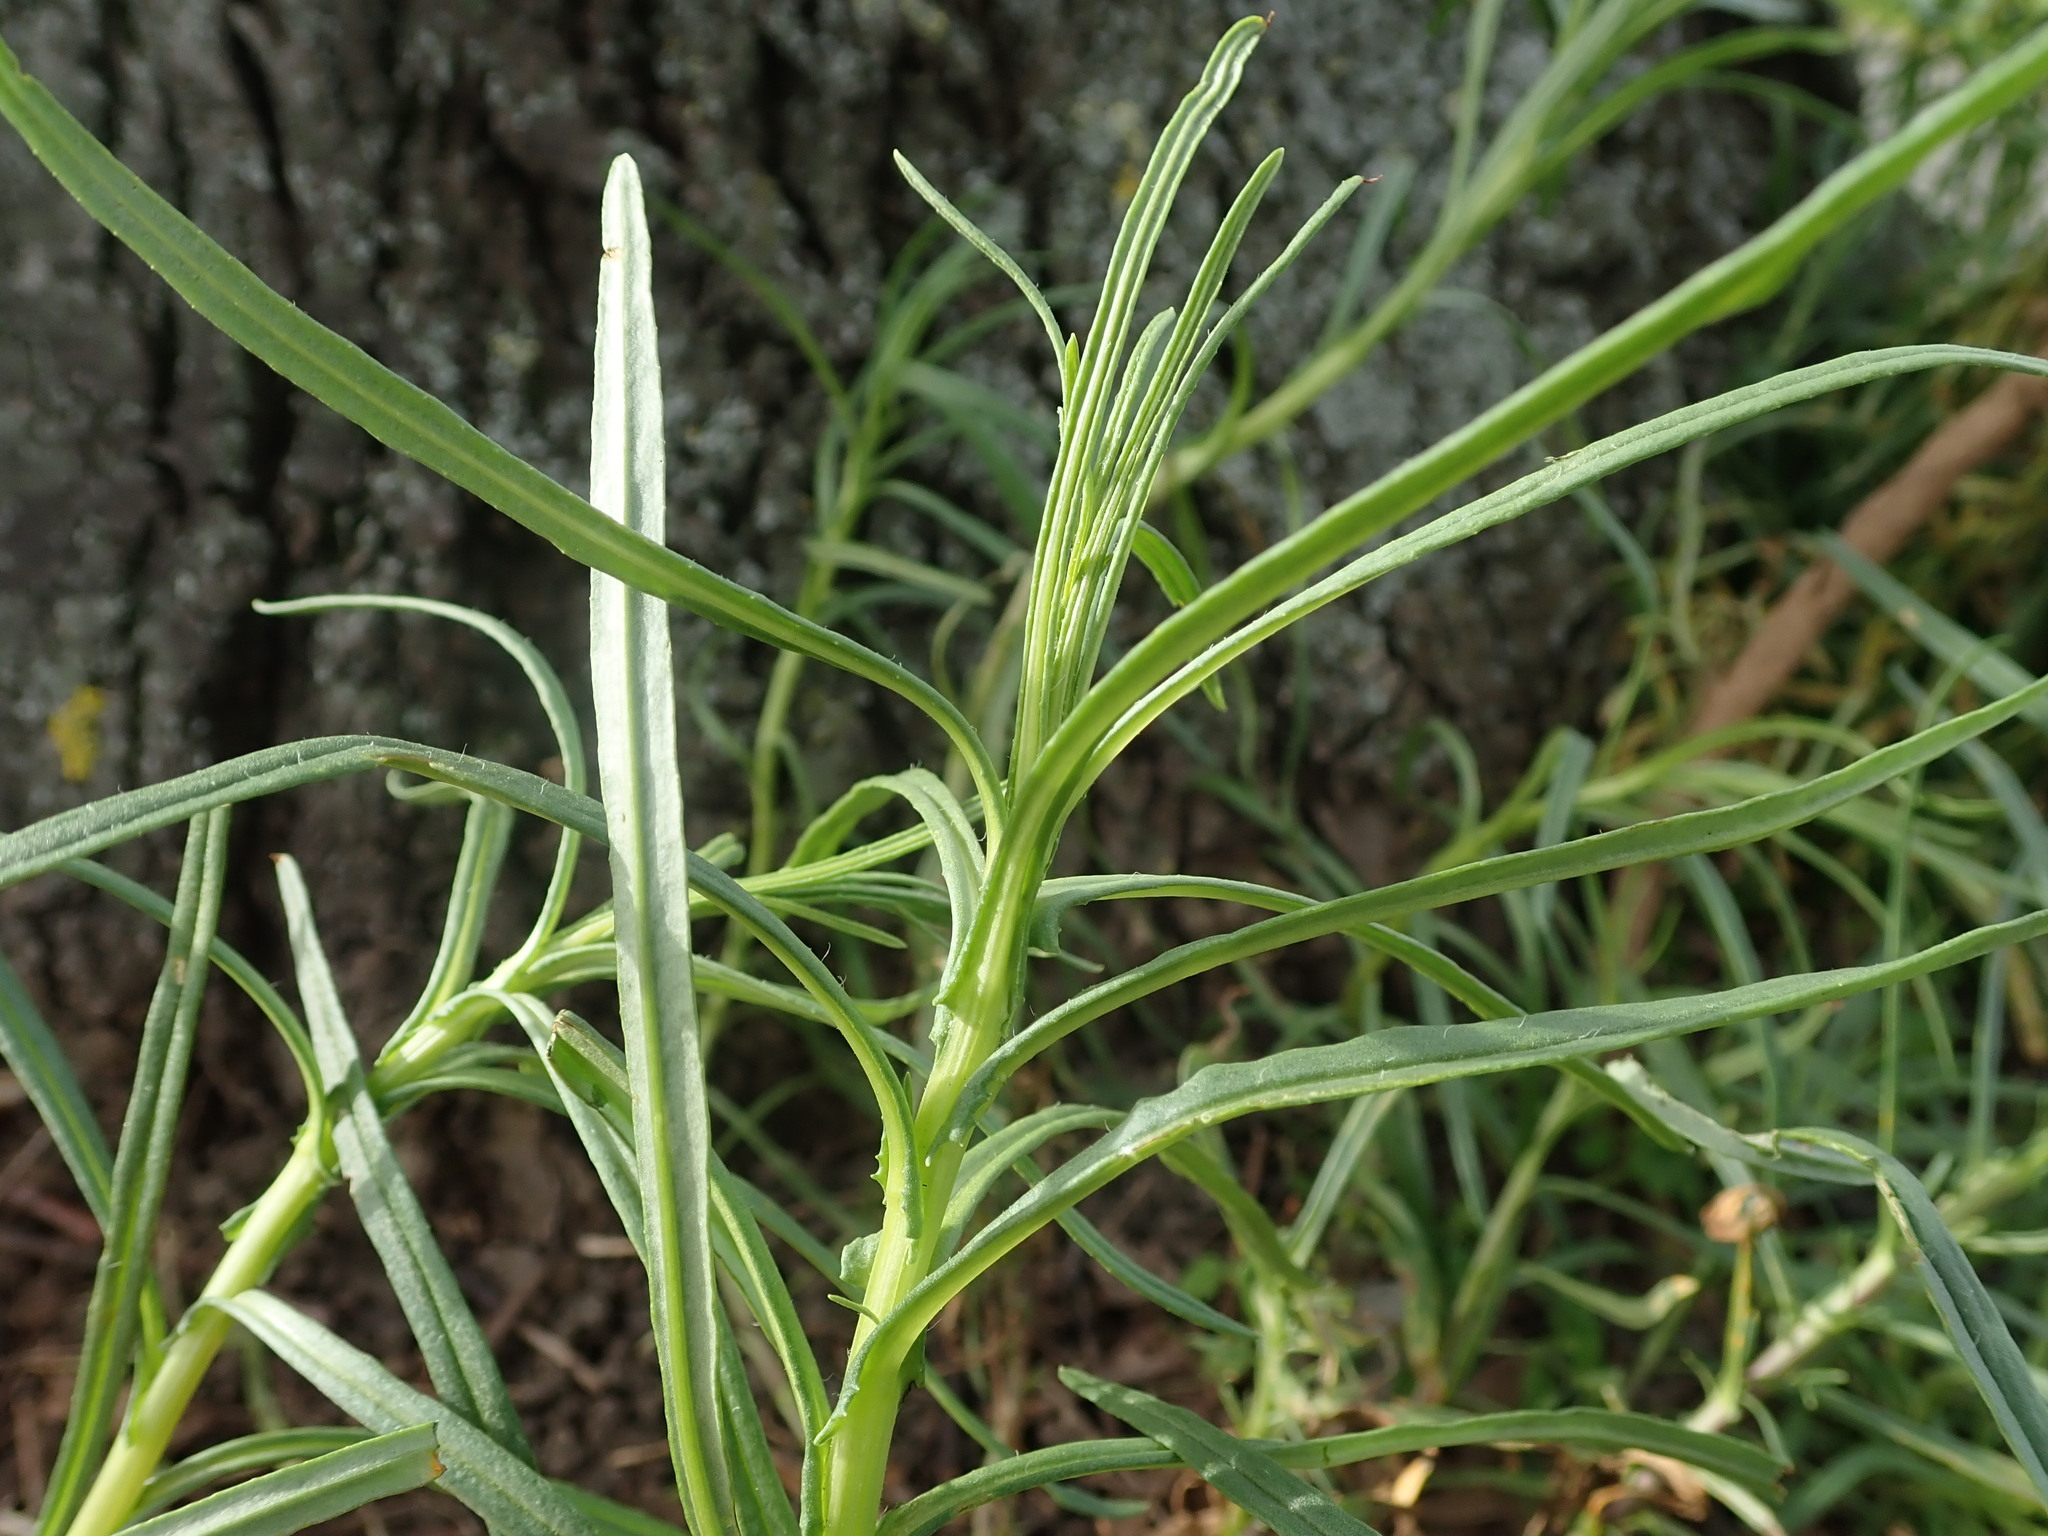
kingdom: Plantae
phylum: Tracheophyta
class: Magnoliopsida
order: Asterales
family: Asteraceae
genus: Senecio
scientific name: Senecio inaequidens
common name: Narrow-leaved ragwort
